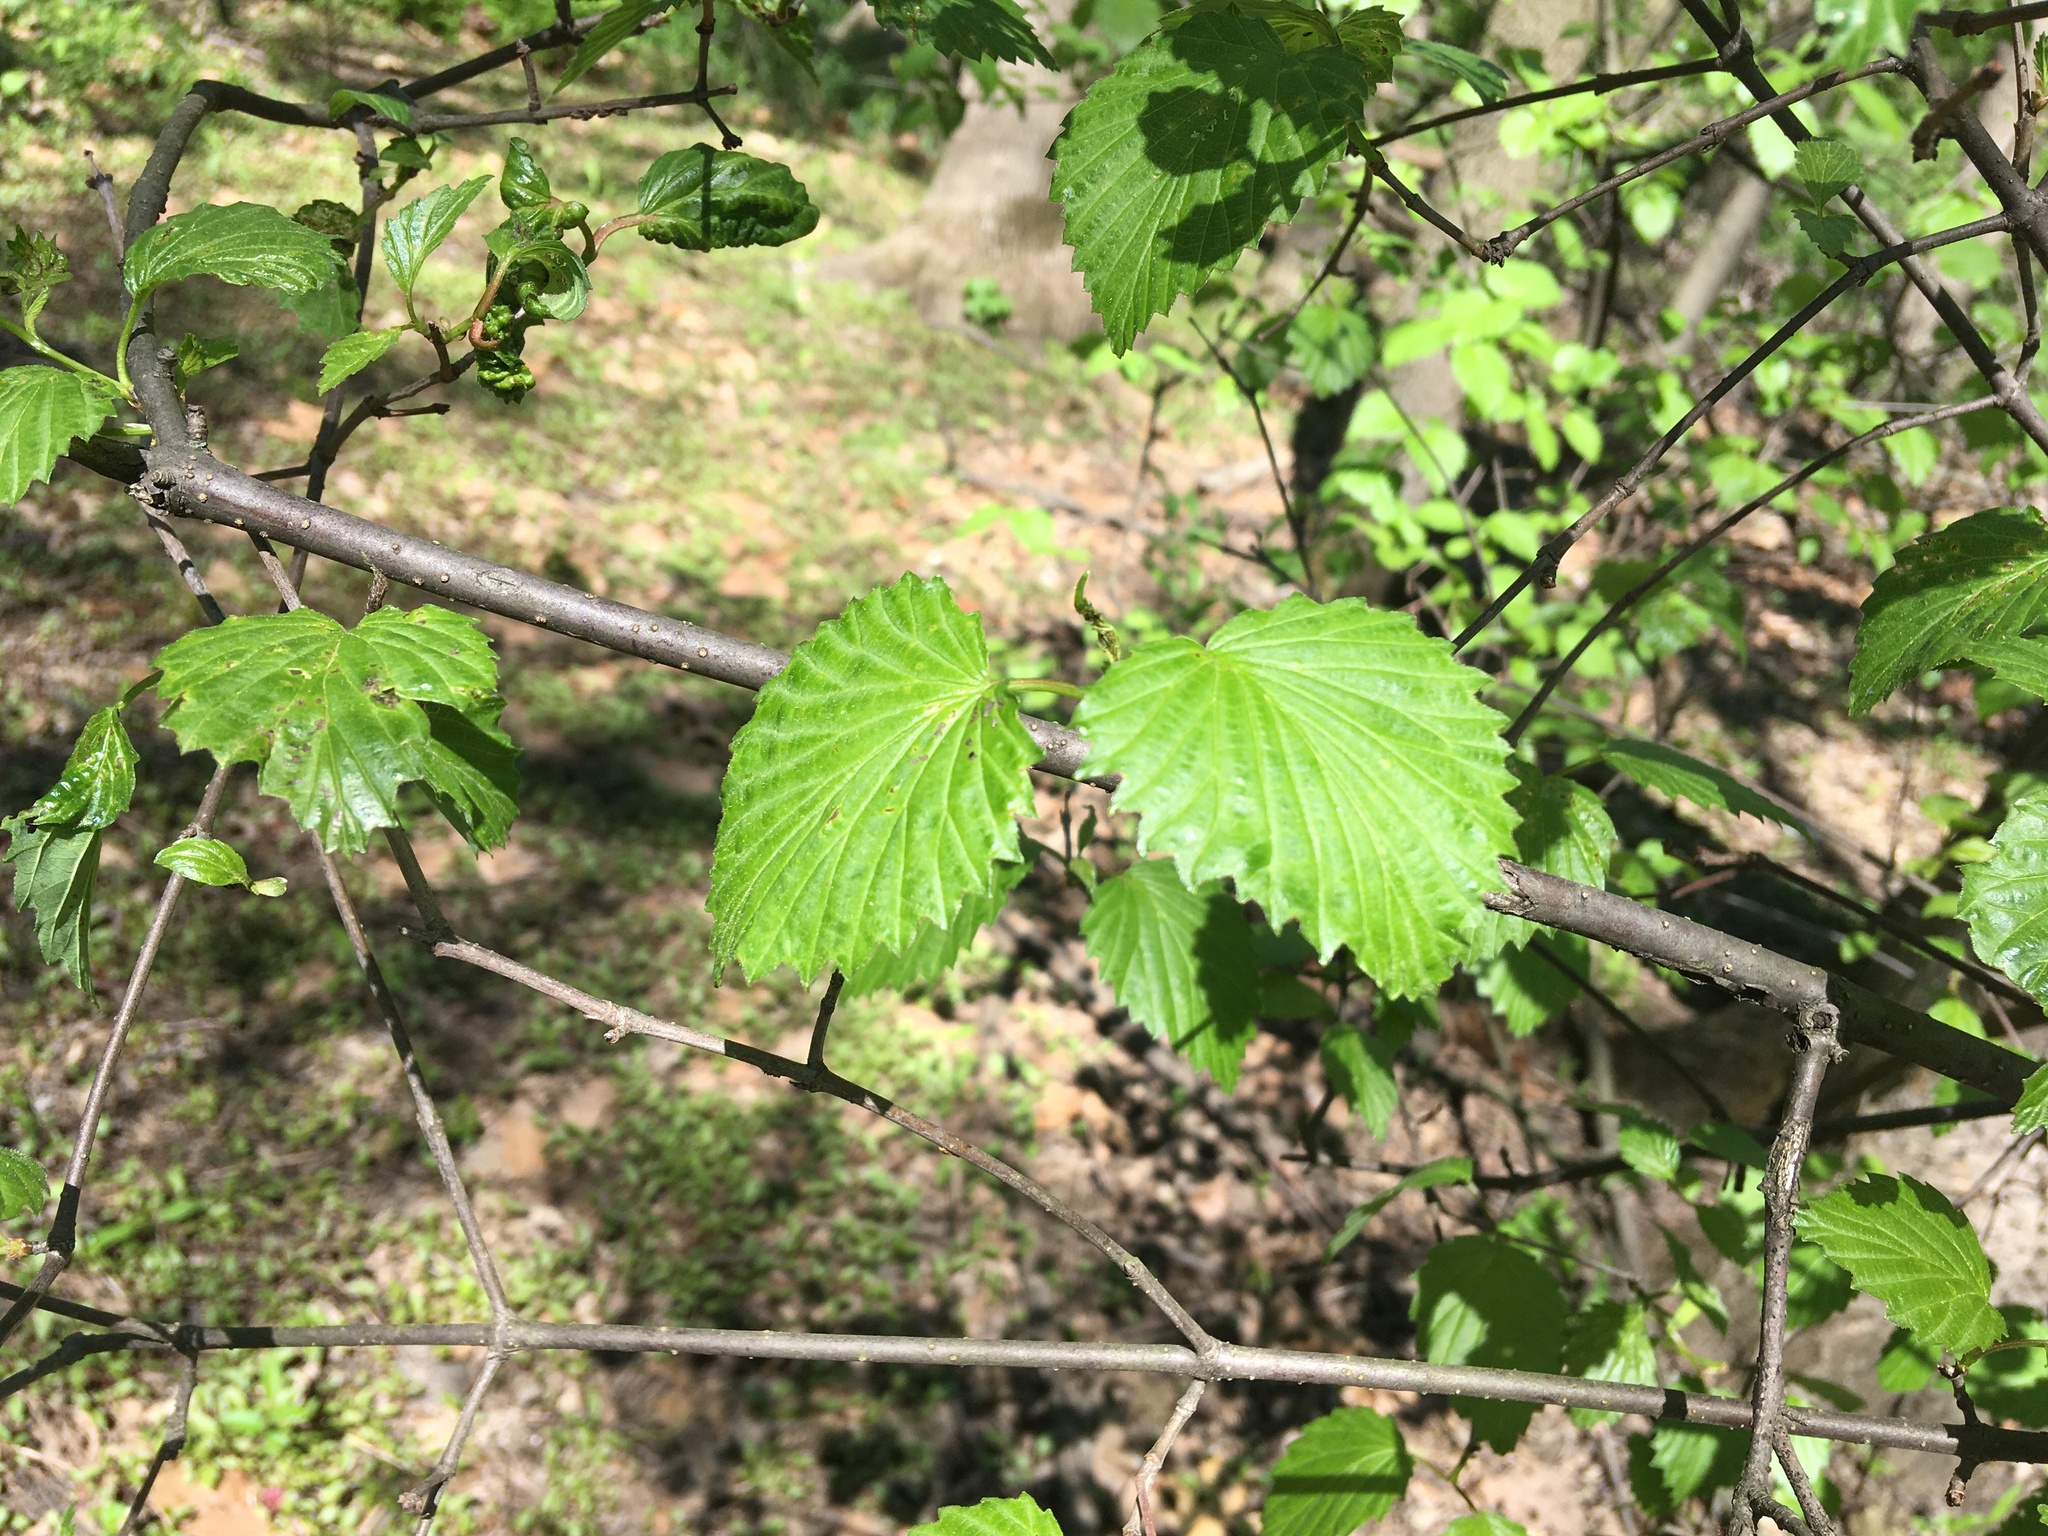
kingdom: Plantae
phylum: Tracheophyta
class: Magnoliopsida
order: Dipsacales
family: Viburnaceae
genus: Viburnum
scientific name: Viburnum dentatum
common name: Arrow-wood
